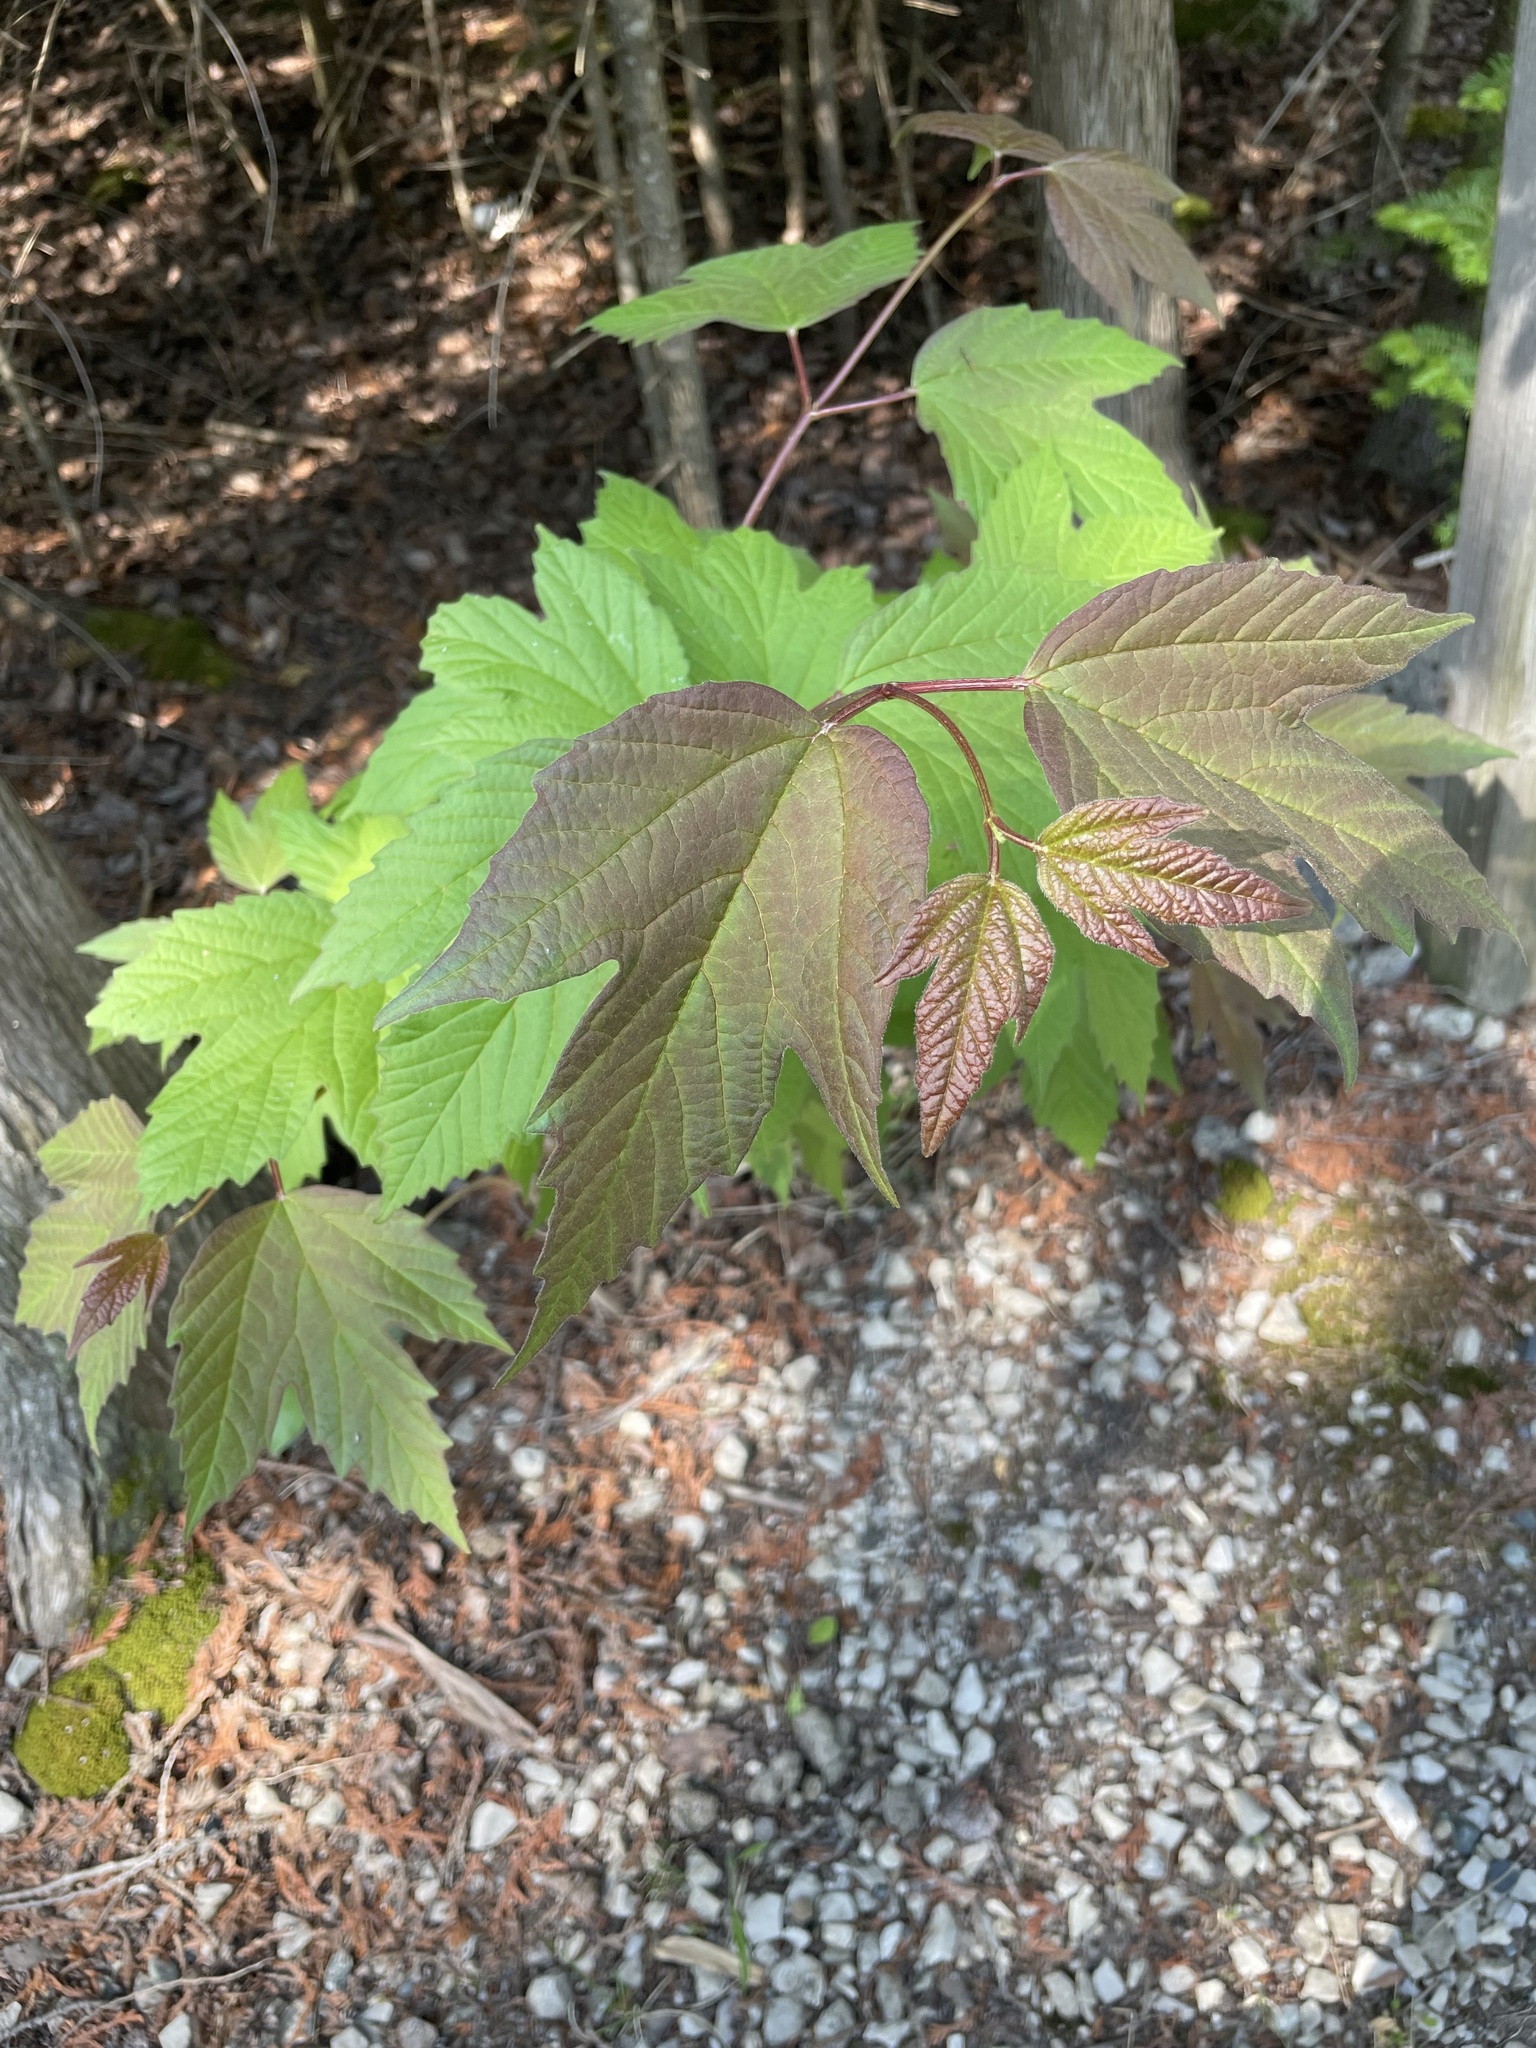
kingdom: Plantae
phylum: Tracheophyta
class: Magnoliopsida
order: Dipsacales
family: Viburnaceae
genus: Viburnum
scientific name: Viburnum opulus
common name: Guelder-rose
